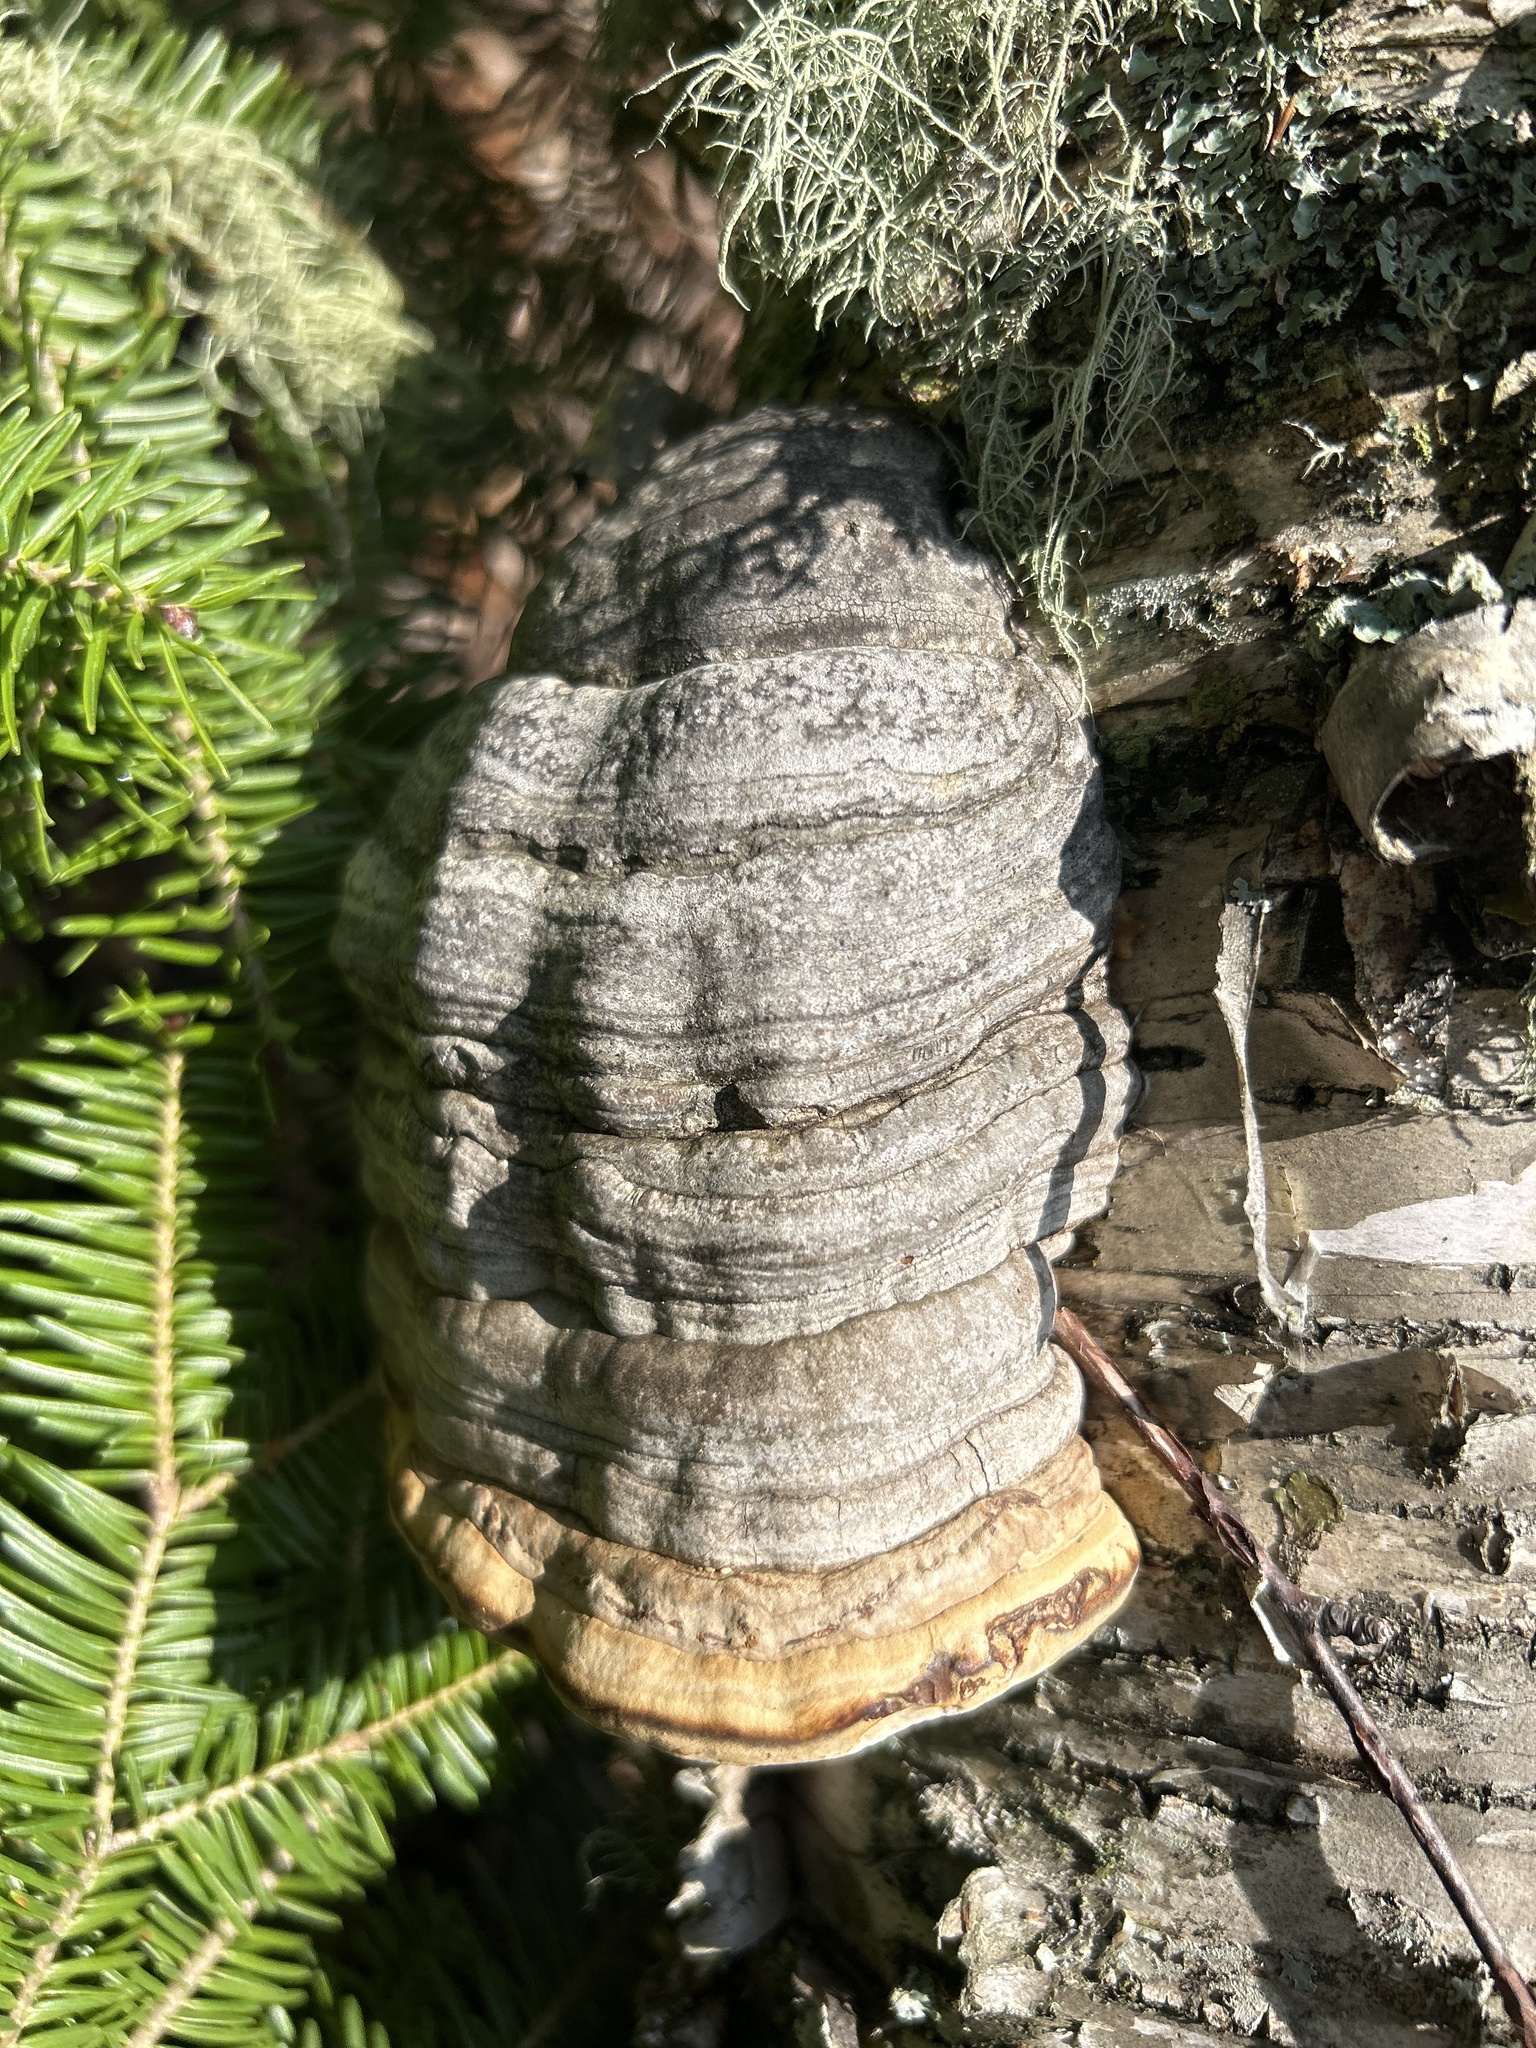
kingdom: Fungi
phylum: Basidiomycota
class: Agaricomycetes
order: Polyporales
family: Polyporaceae
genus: Fomes
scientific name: Fomes fomentarius
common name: Hoof fungus
